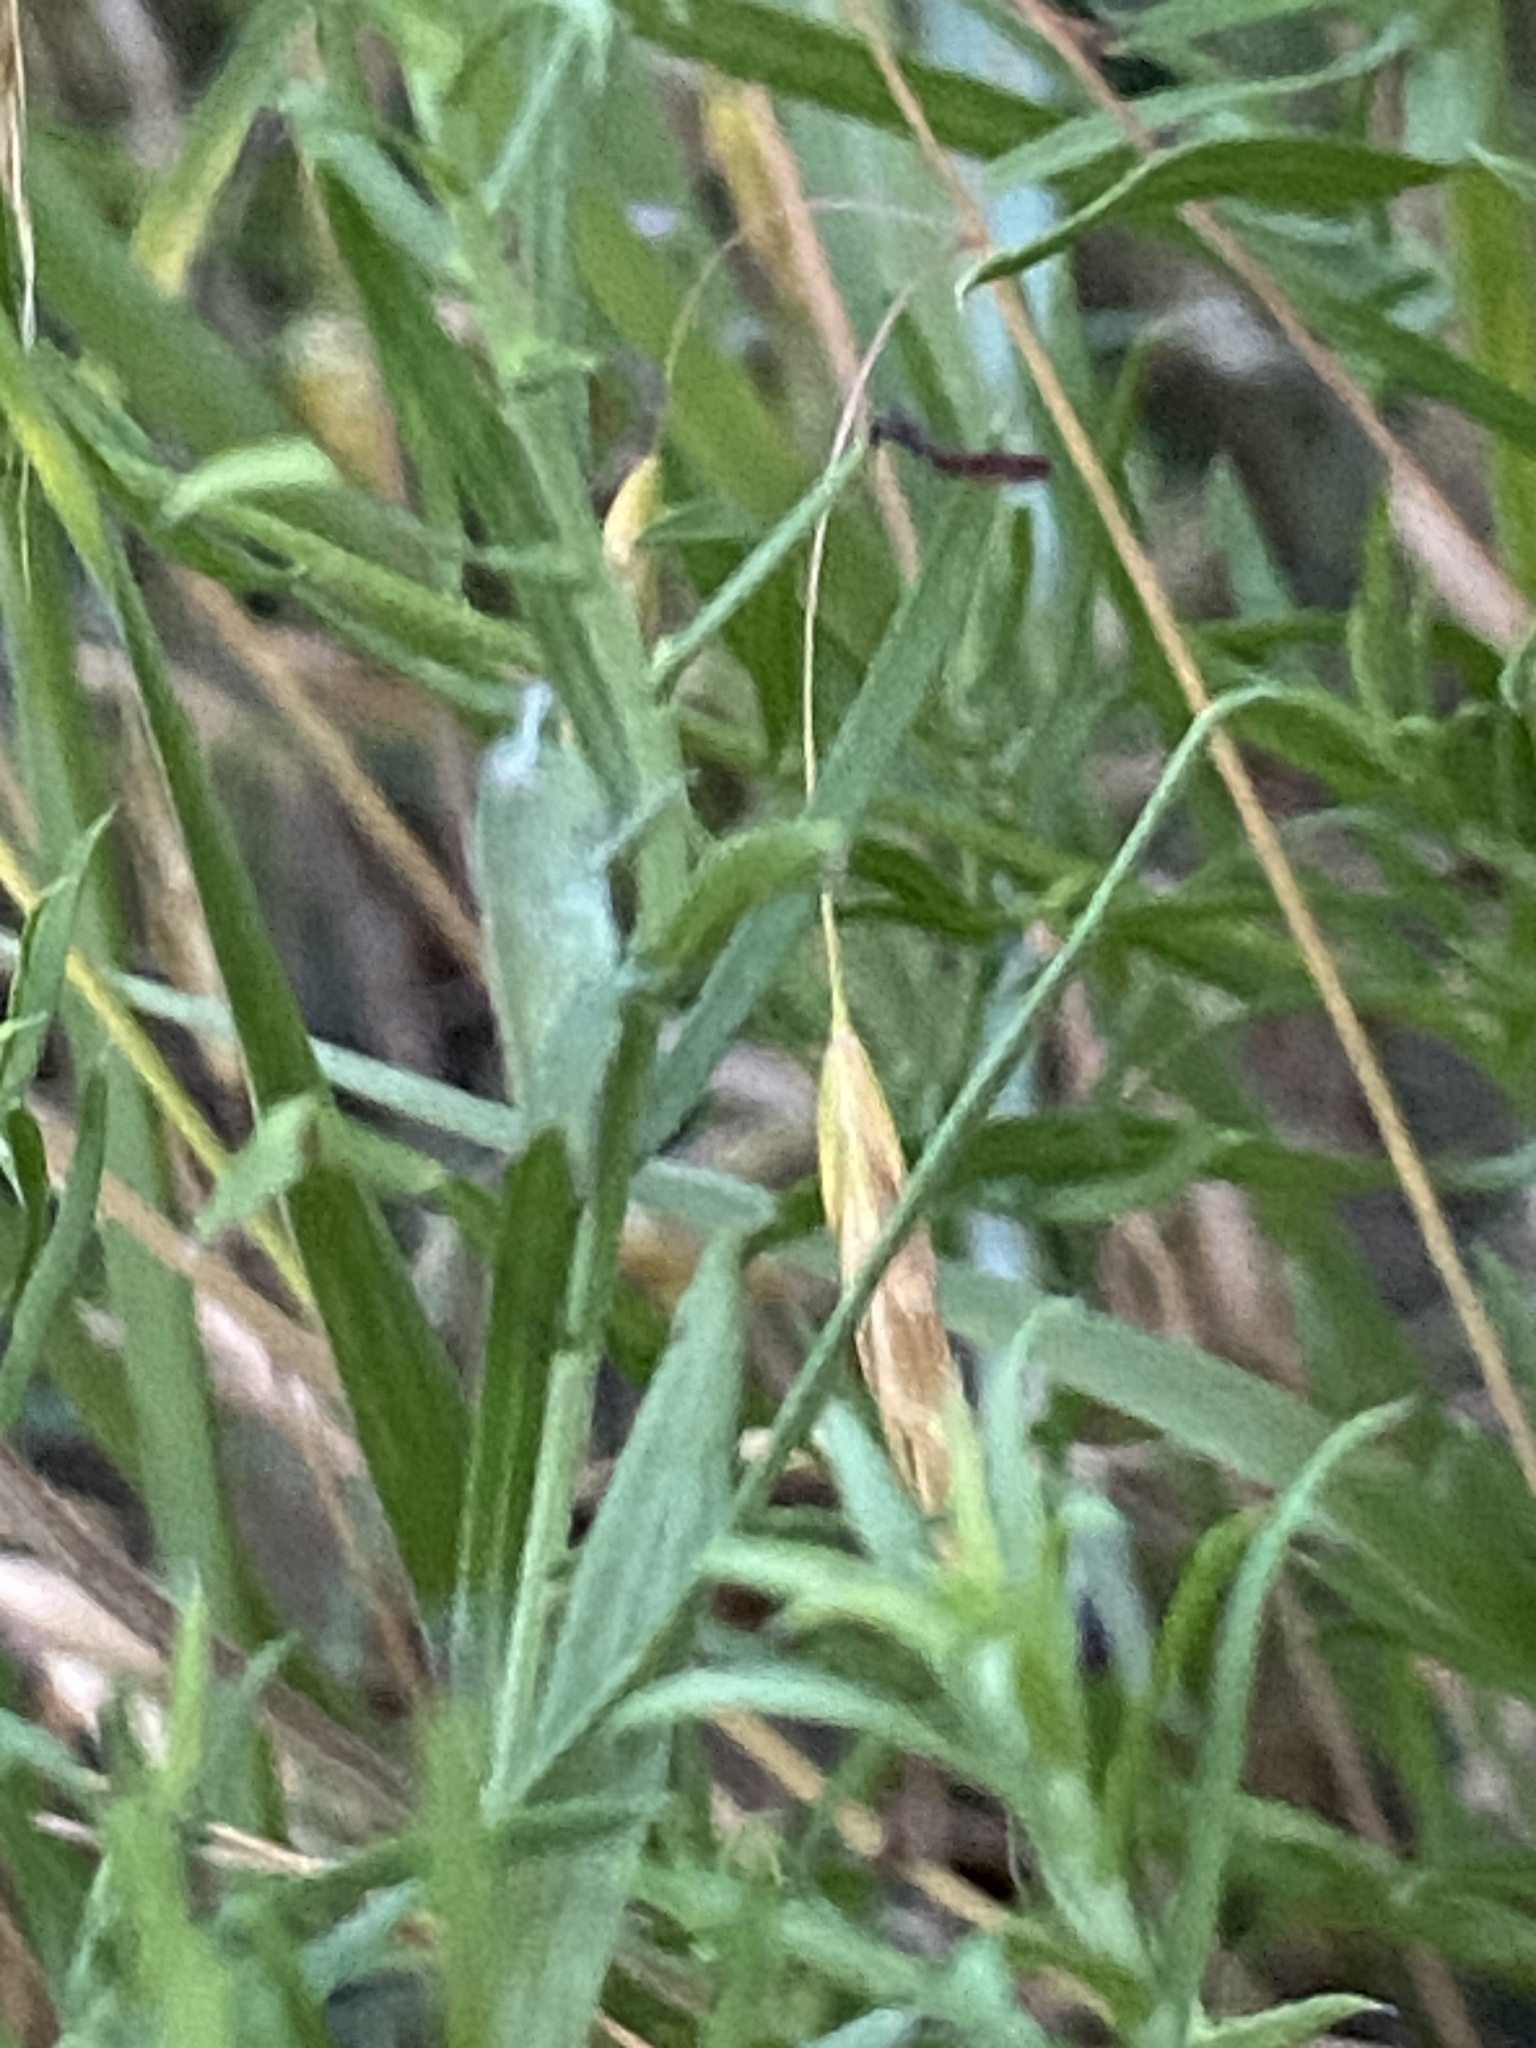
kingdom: Animalia
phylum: Arthropoda
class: Insecta
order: Orthoptera
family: Acrididae
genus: Chortophaga
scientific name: Chortophaga viridifasciata
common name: Green-striped grasshopper
